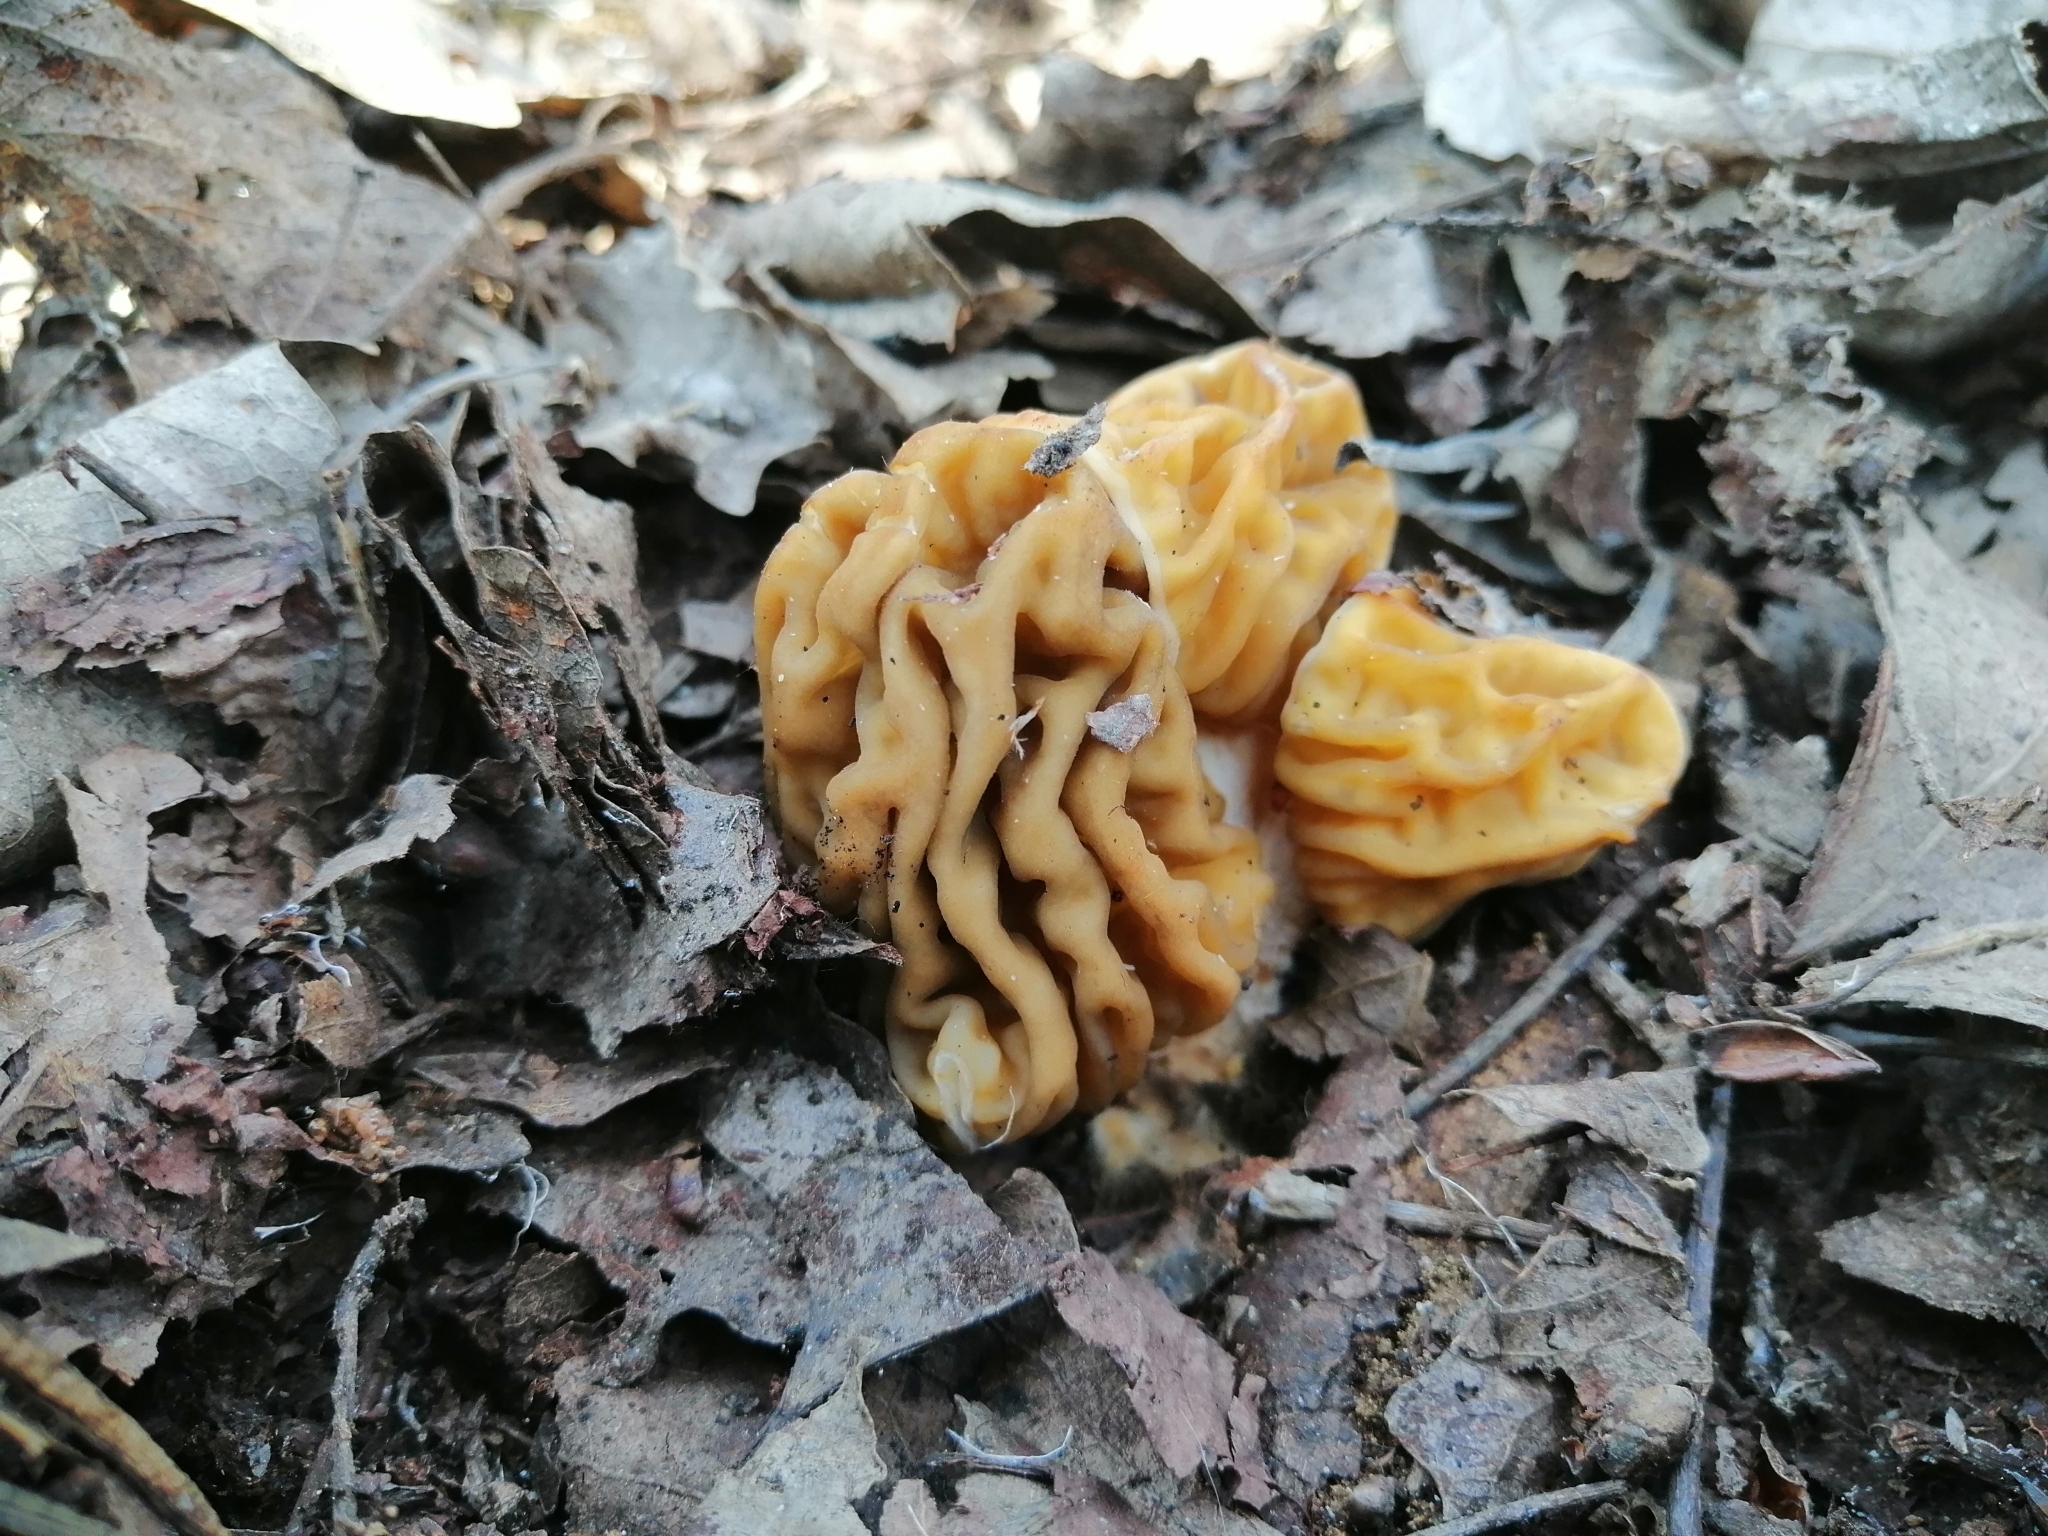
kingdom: Fungi
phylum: Ascomycota
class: Pezizomycetes
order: Pezizales
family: Morchellaceae
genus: Verpa
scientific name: Verpa bohemica
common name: Wrinkled thimble morel
